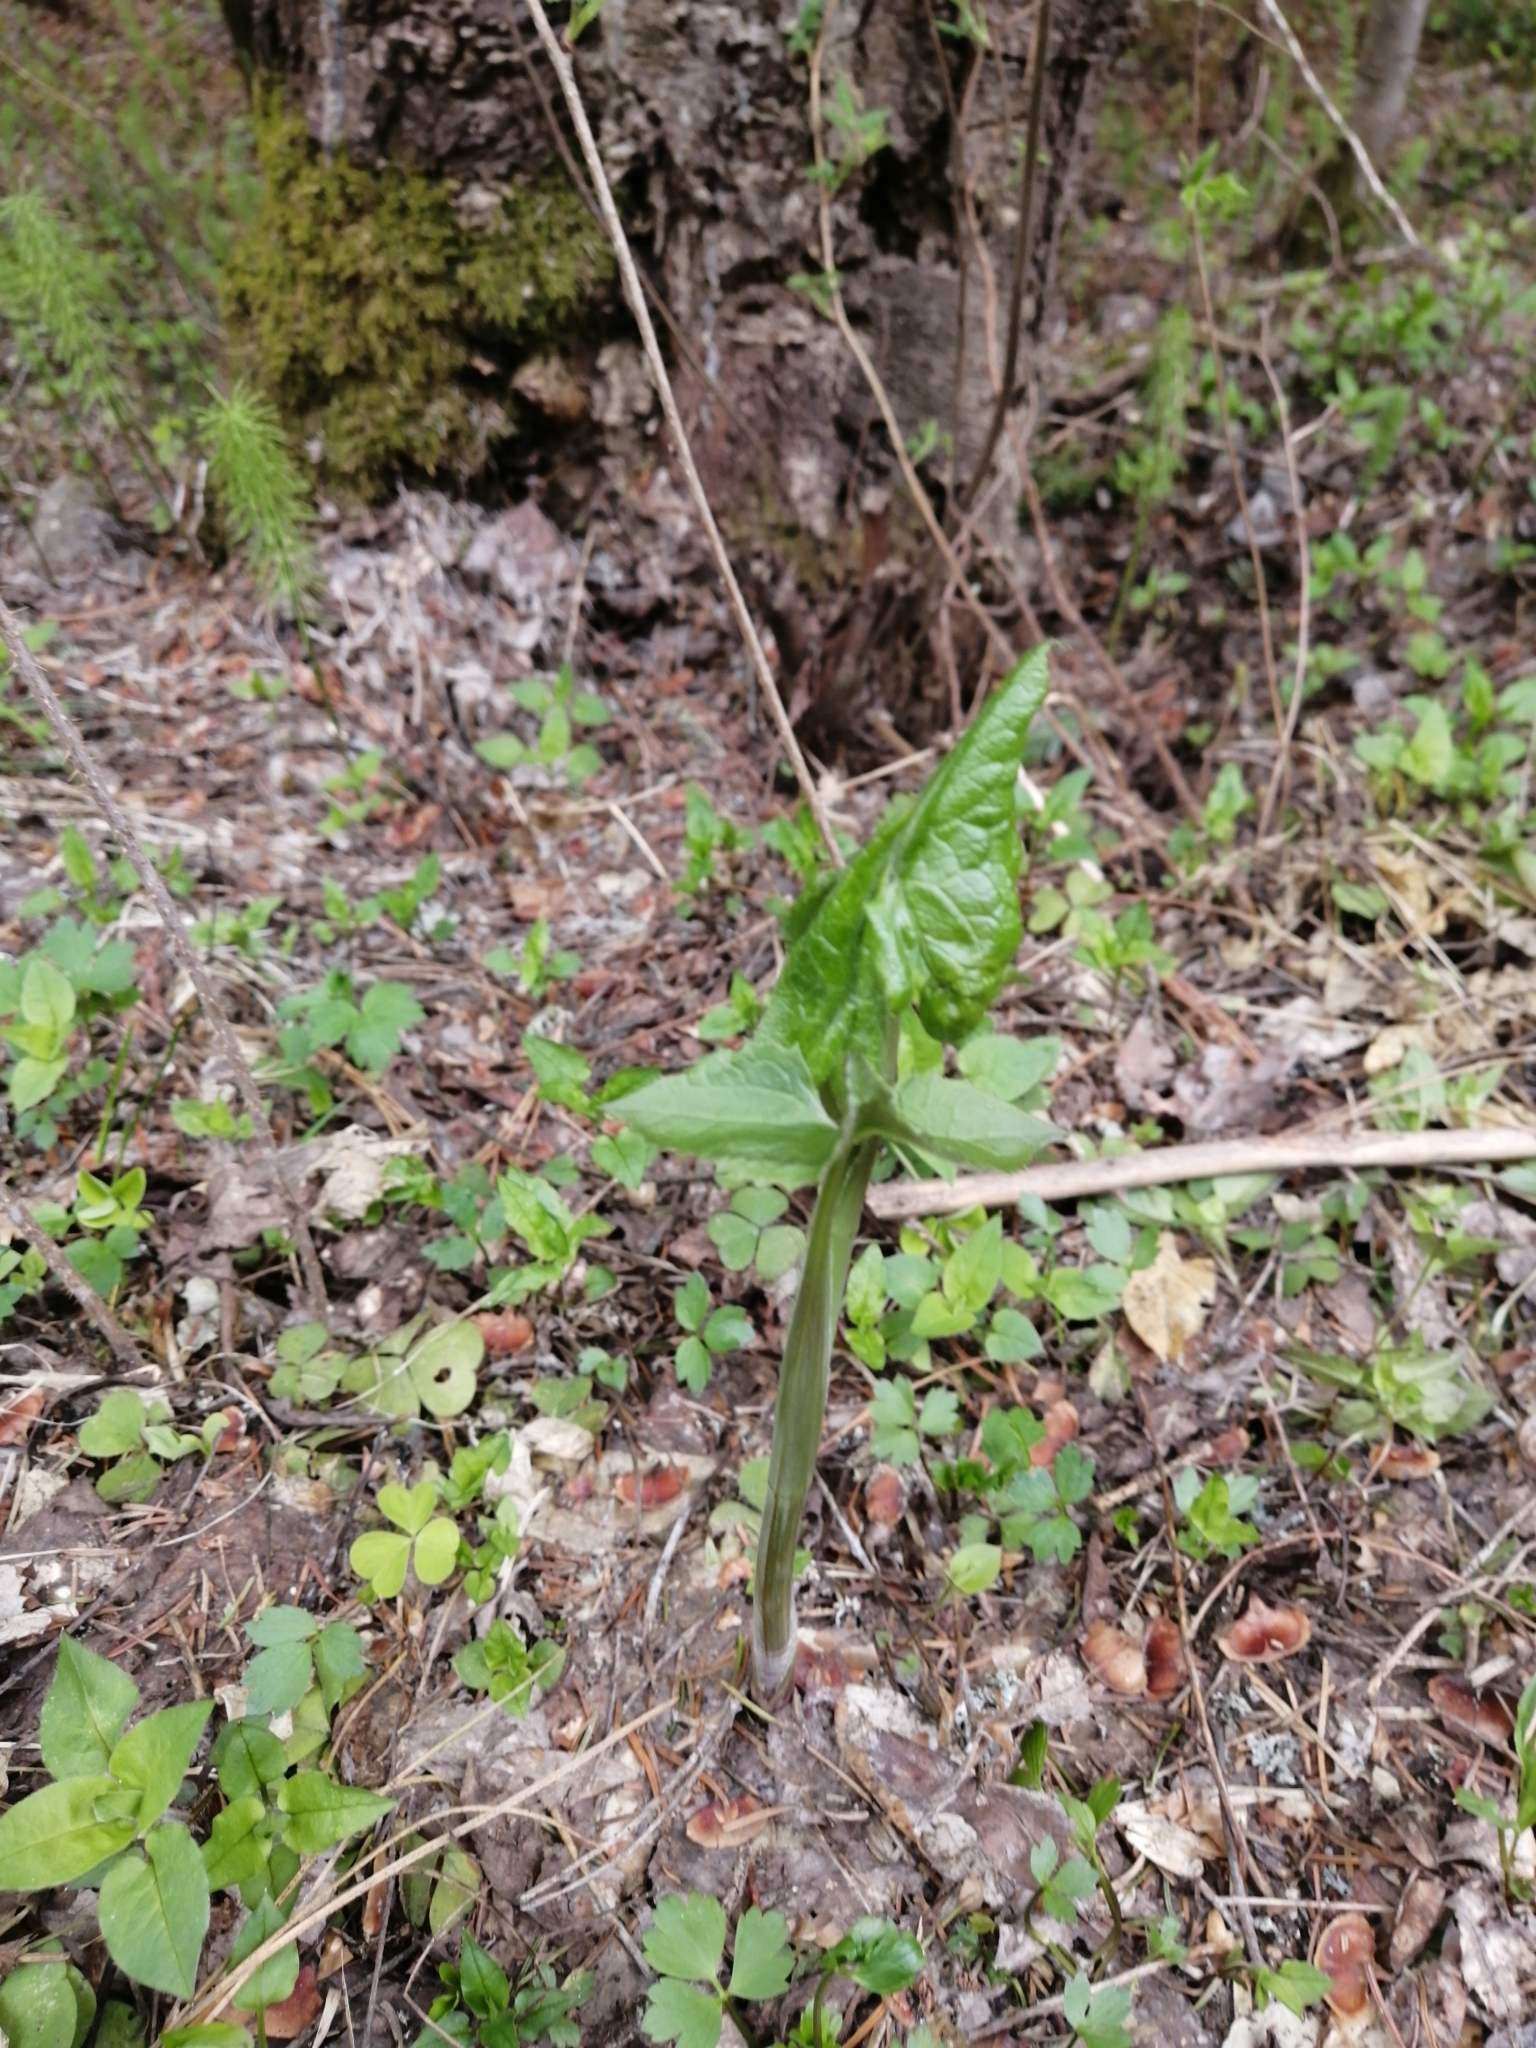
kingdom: Plantae
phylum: Tracheophyta
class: Magnoliopsida
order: Asterales
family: Asteraceae
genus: Parasenecio
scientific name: Parasenecio hastatus
